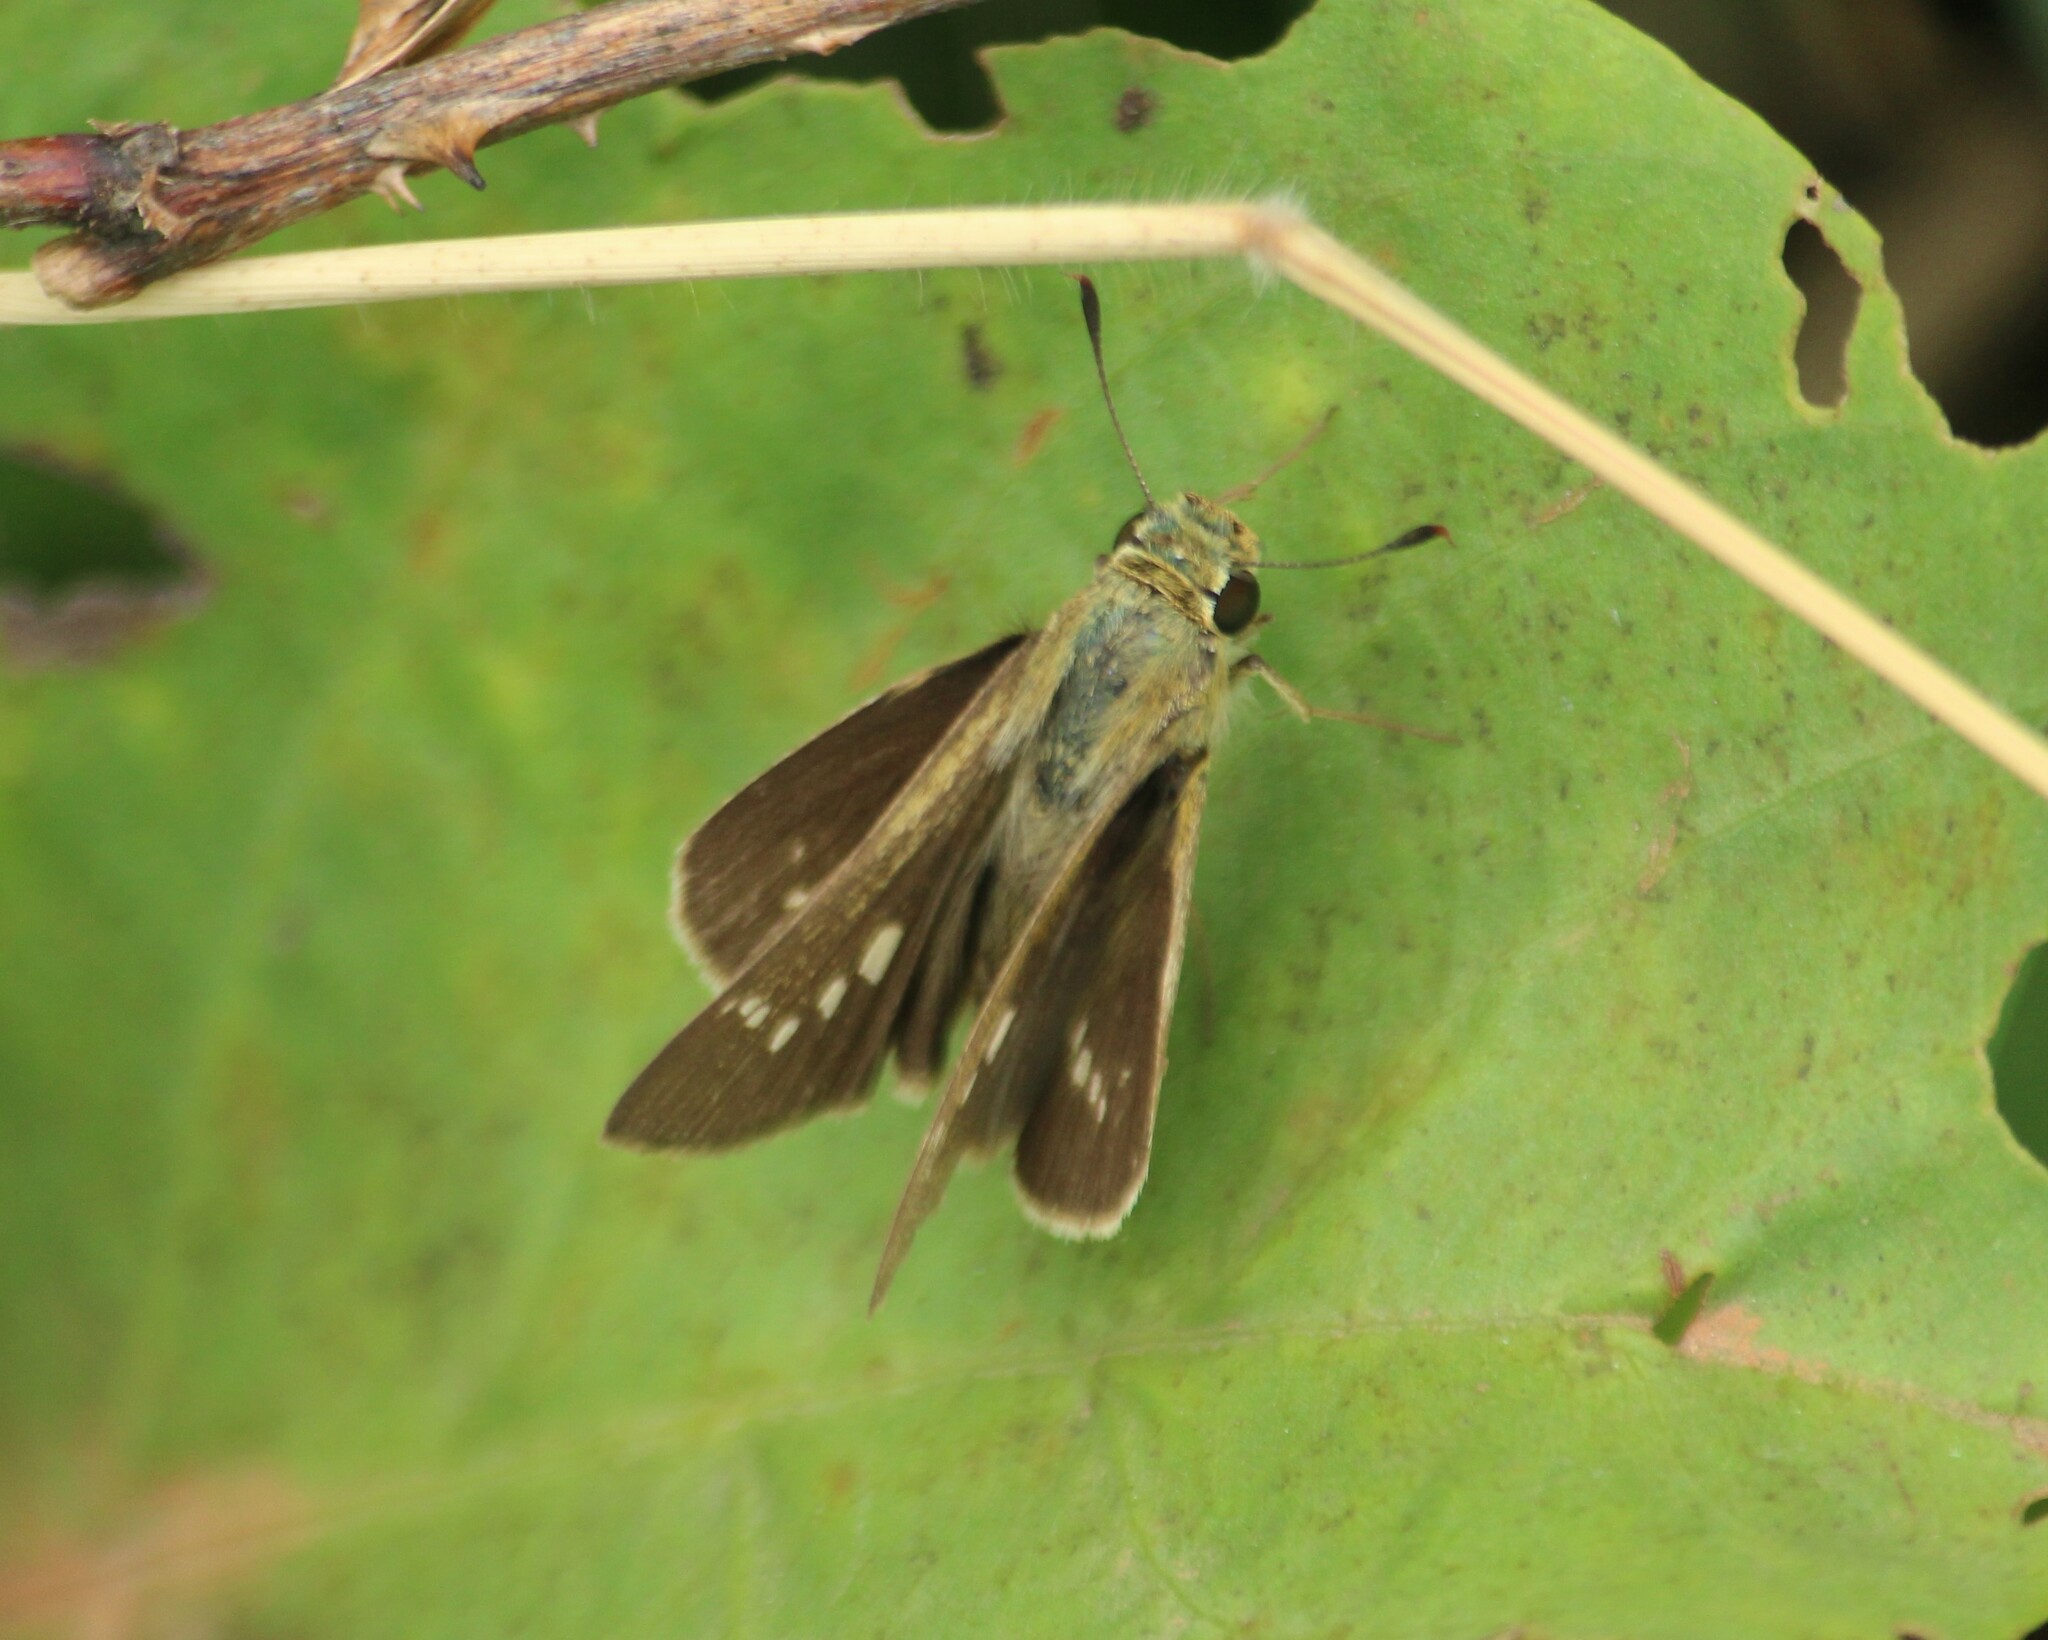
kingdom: Animalia
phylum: Arthropoda
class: Insecta
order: Lepidoptera
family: Hesperiidae
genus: Parnara
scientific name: Parnara naso
